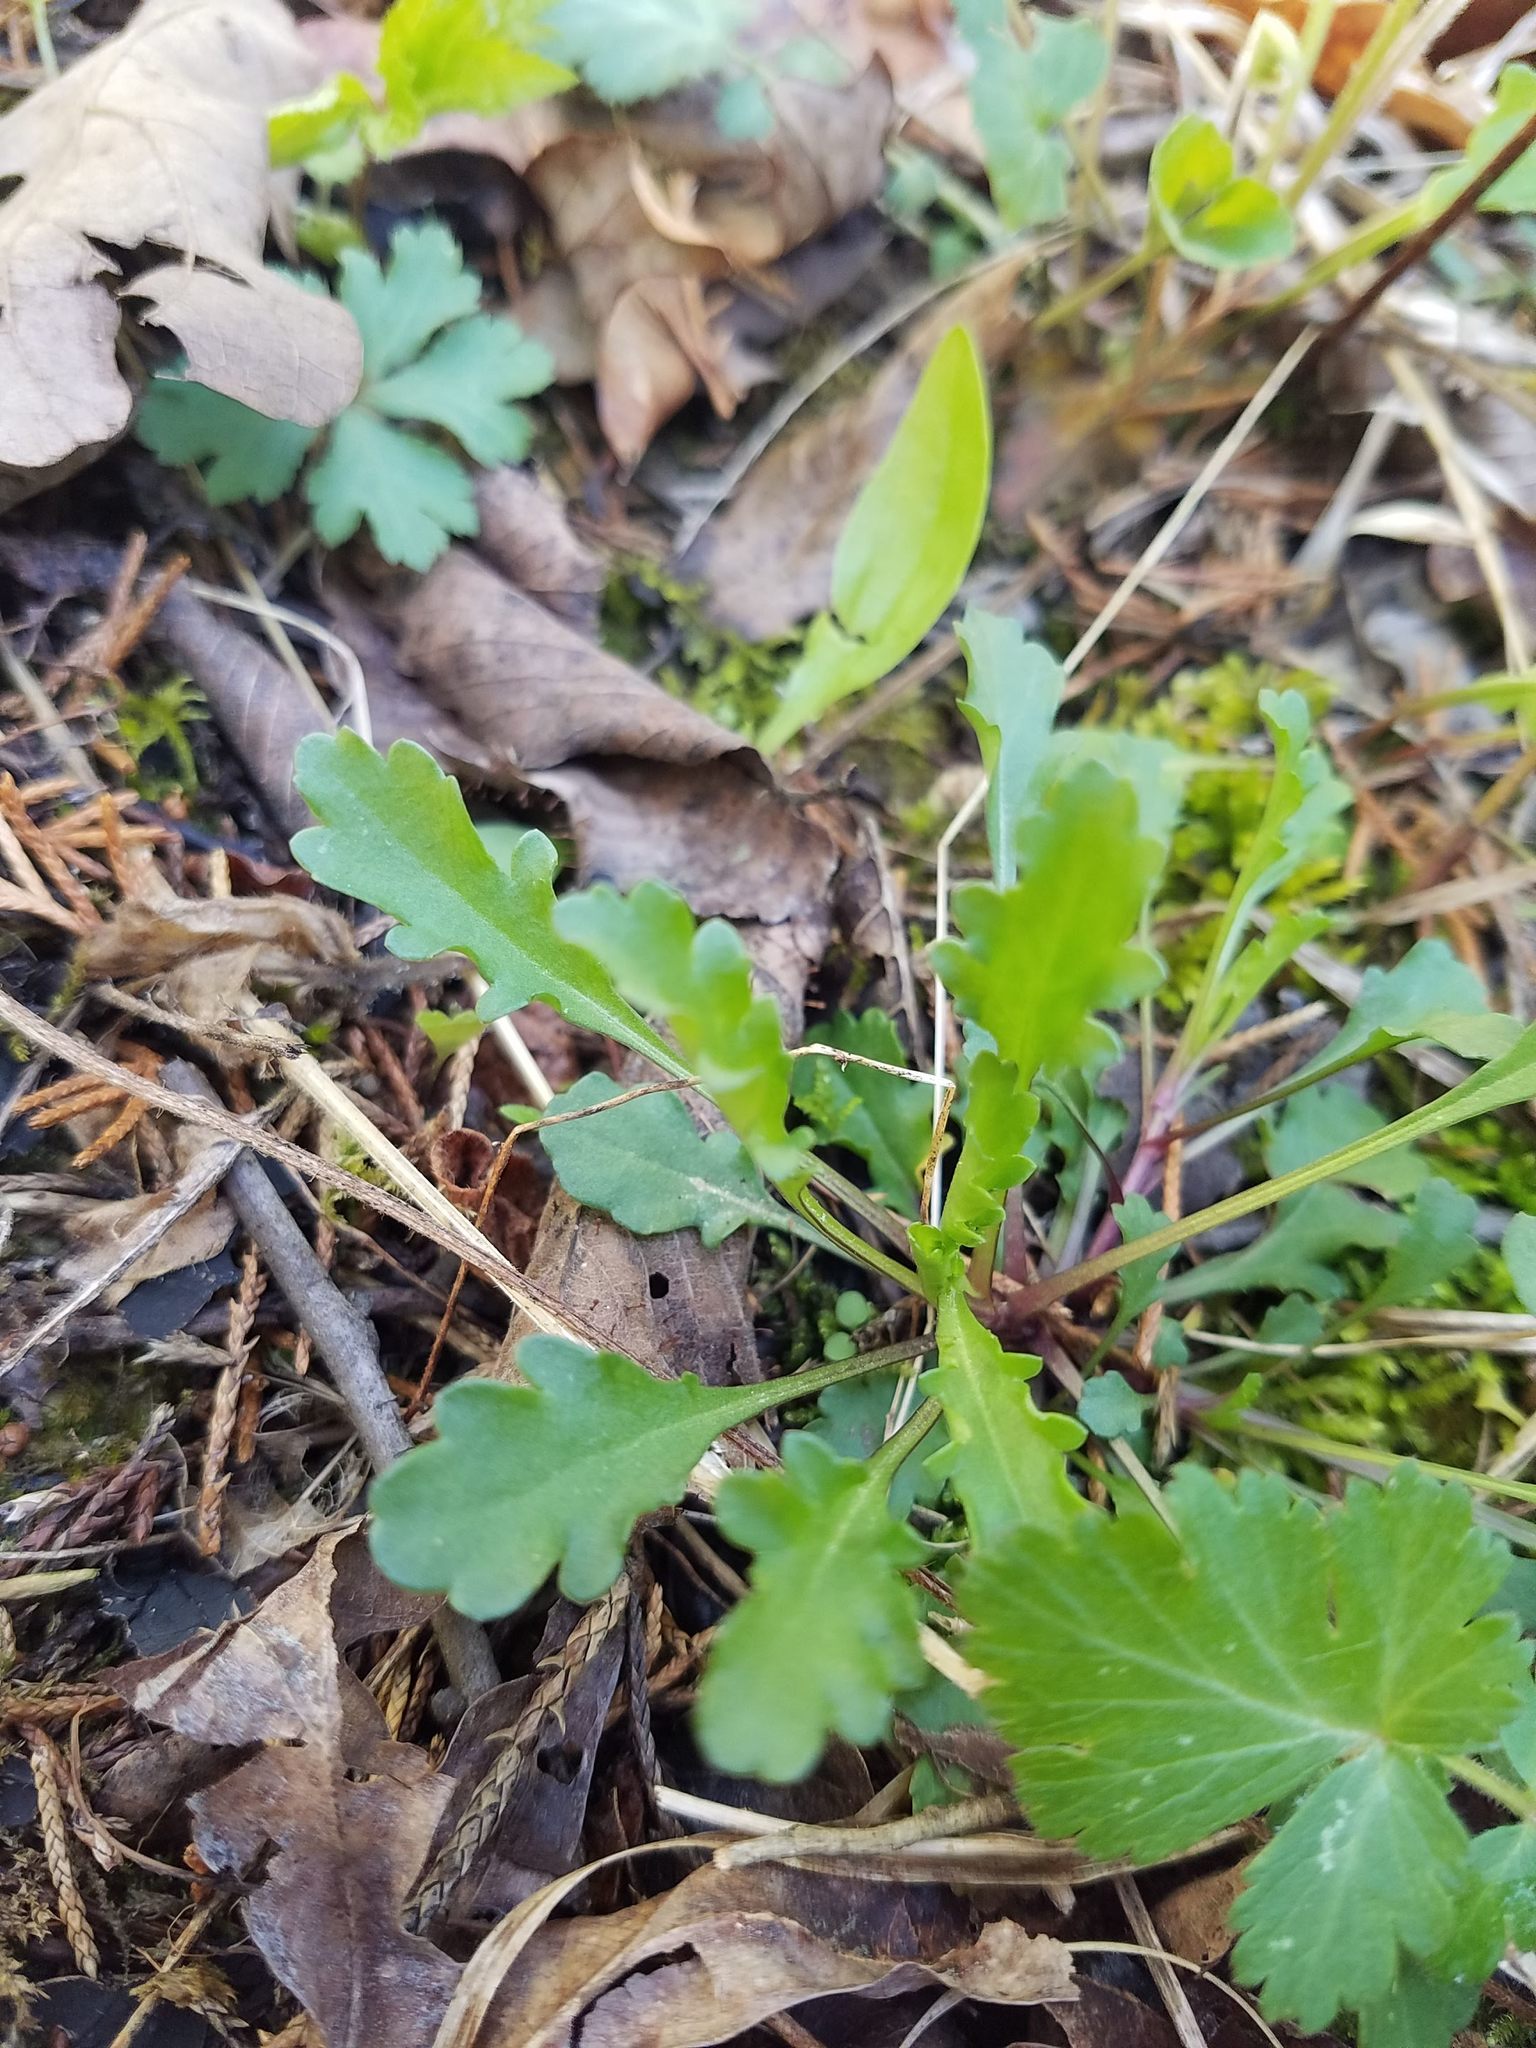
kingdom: Plantae
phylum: Tracheophyta
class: Magnoliopsida
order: Asterales
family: Asteraceae
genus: Leucanthemum
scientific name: Leucanthemum vulgare
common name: Oxeye daisy
